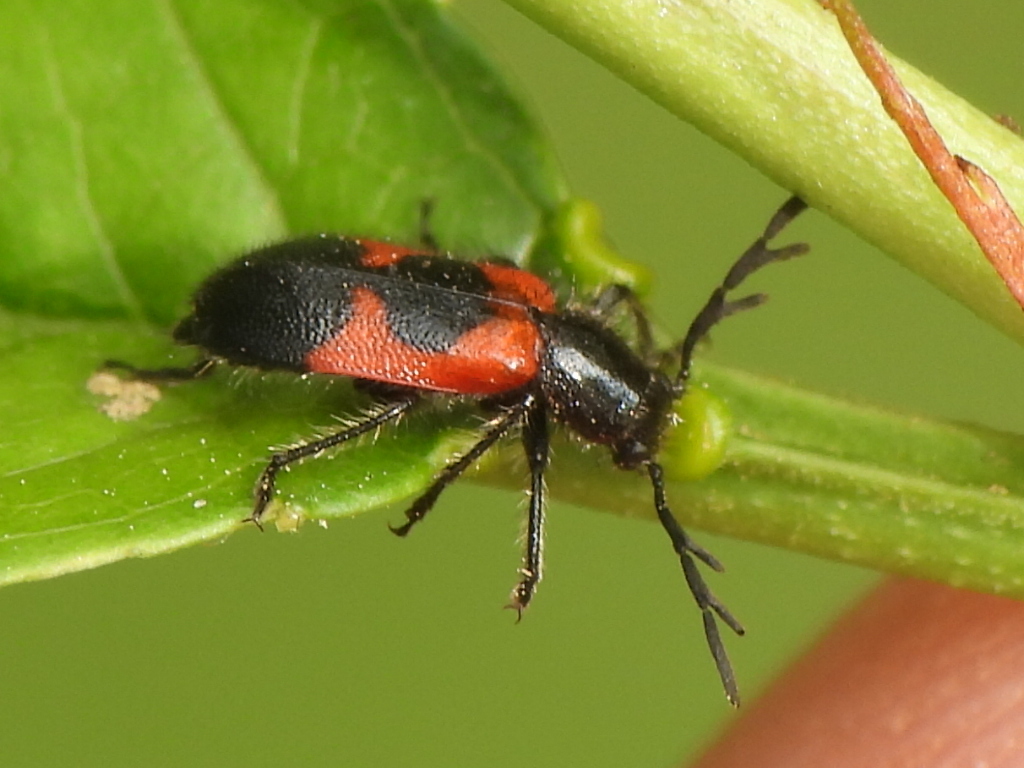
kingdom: Animalia
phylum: Arthropoda
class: Insecta
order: Coleoptera
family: Cleridae
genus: Pelonides
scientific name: Pelonides quadripunctatus
